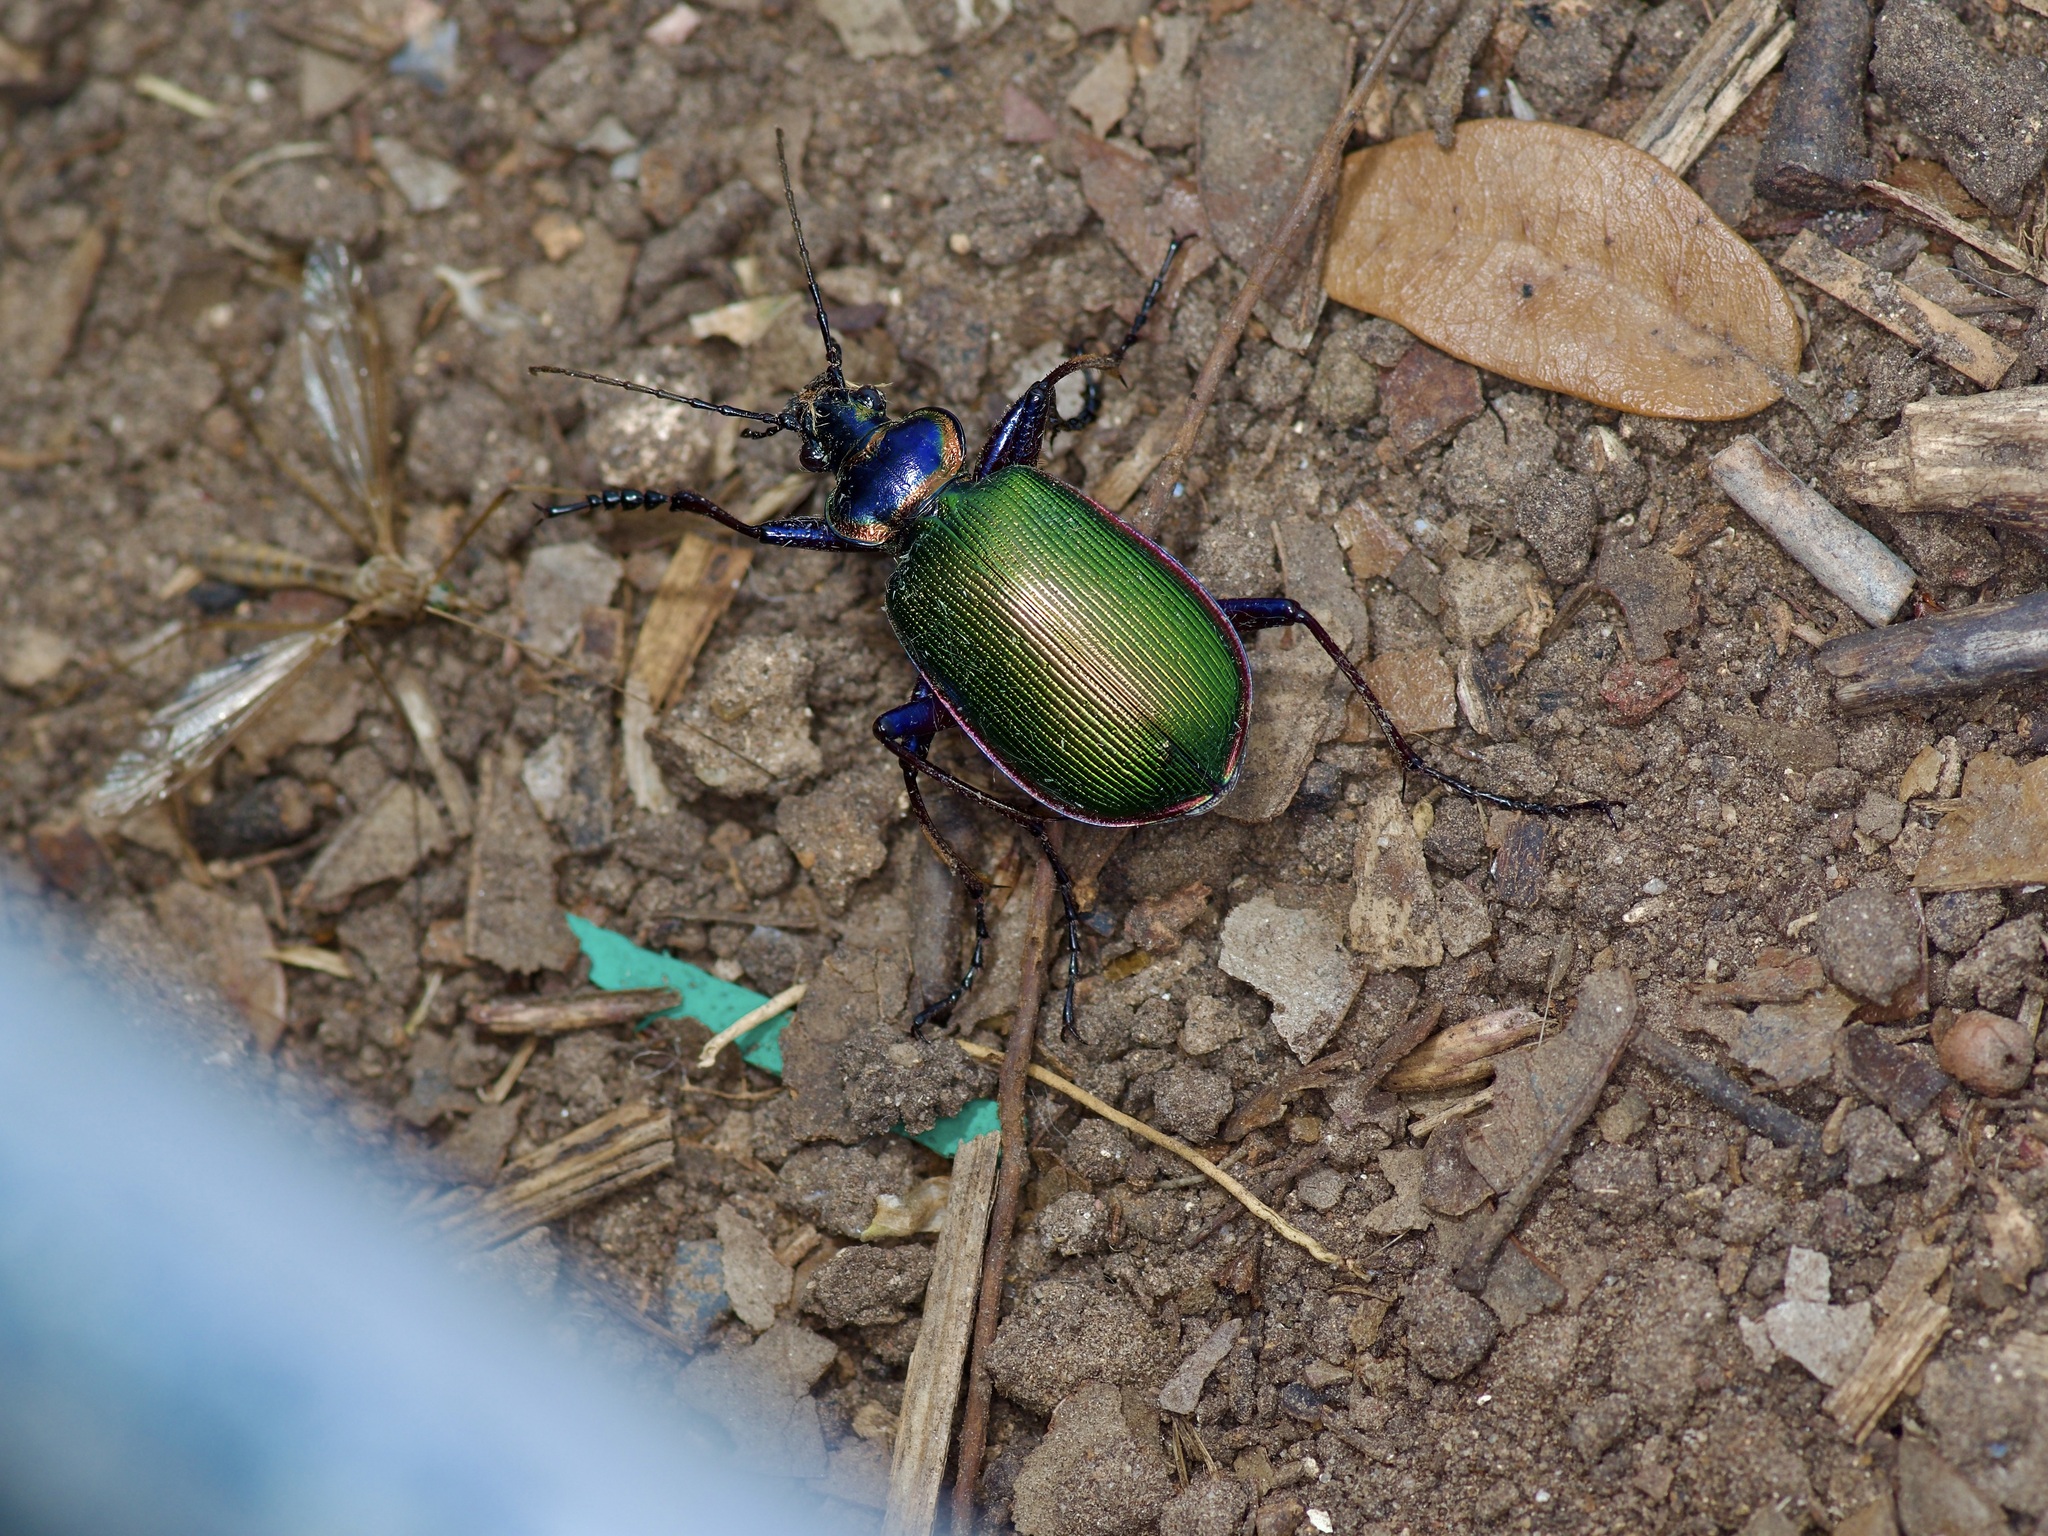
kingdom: Animalia
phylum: Arthropoda
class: Insecta
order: Coleoptera
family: Carabidae
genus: Calosoma
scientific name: Calosoma scrutator
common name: Fiery searcher beetle
